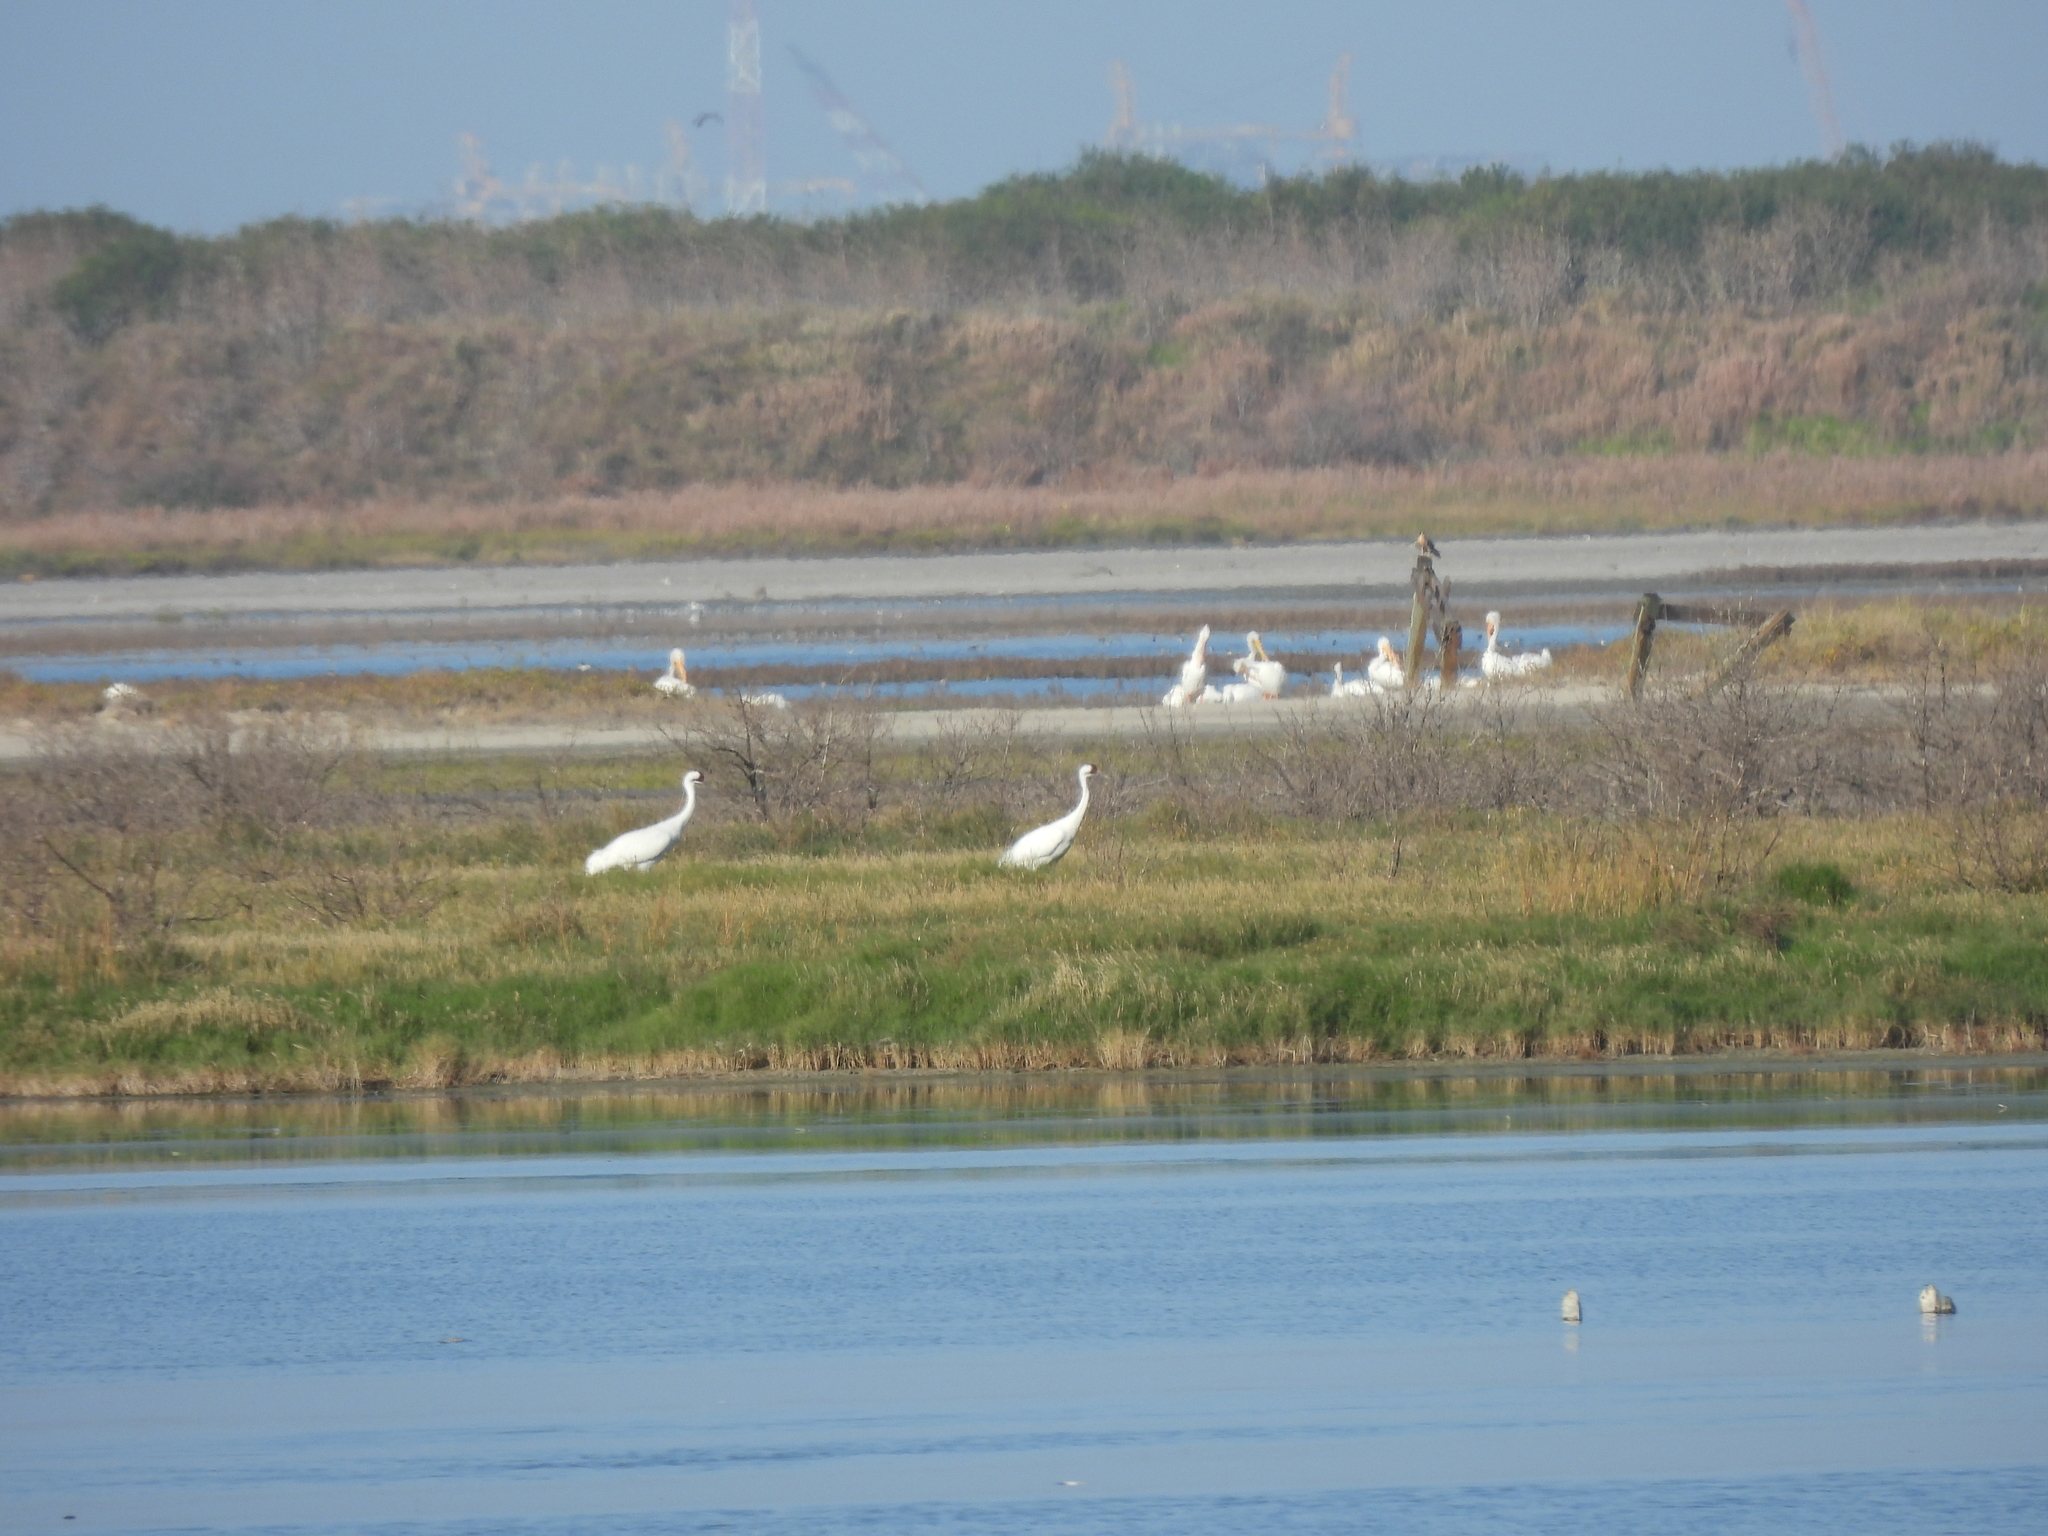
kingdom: Animalia
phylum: Chordata
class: Aves
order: Gruiformes
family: Gruidae
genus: Grus
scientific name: Grus americana
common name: Whooping crane
